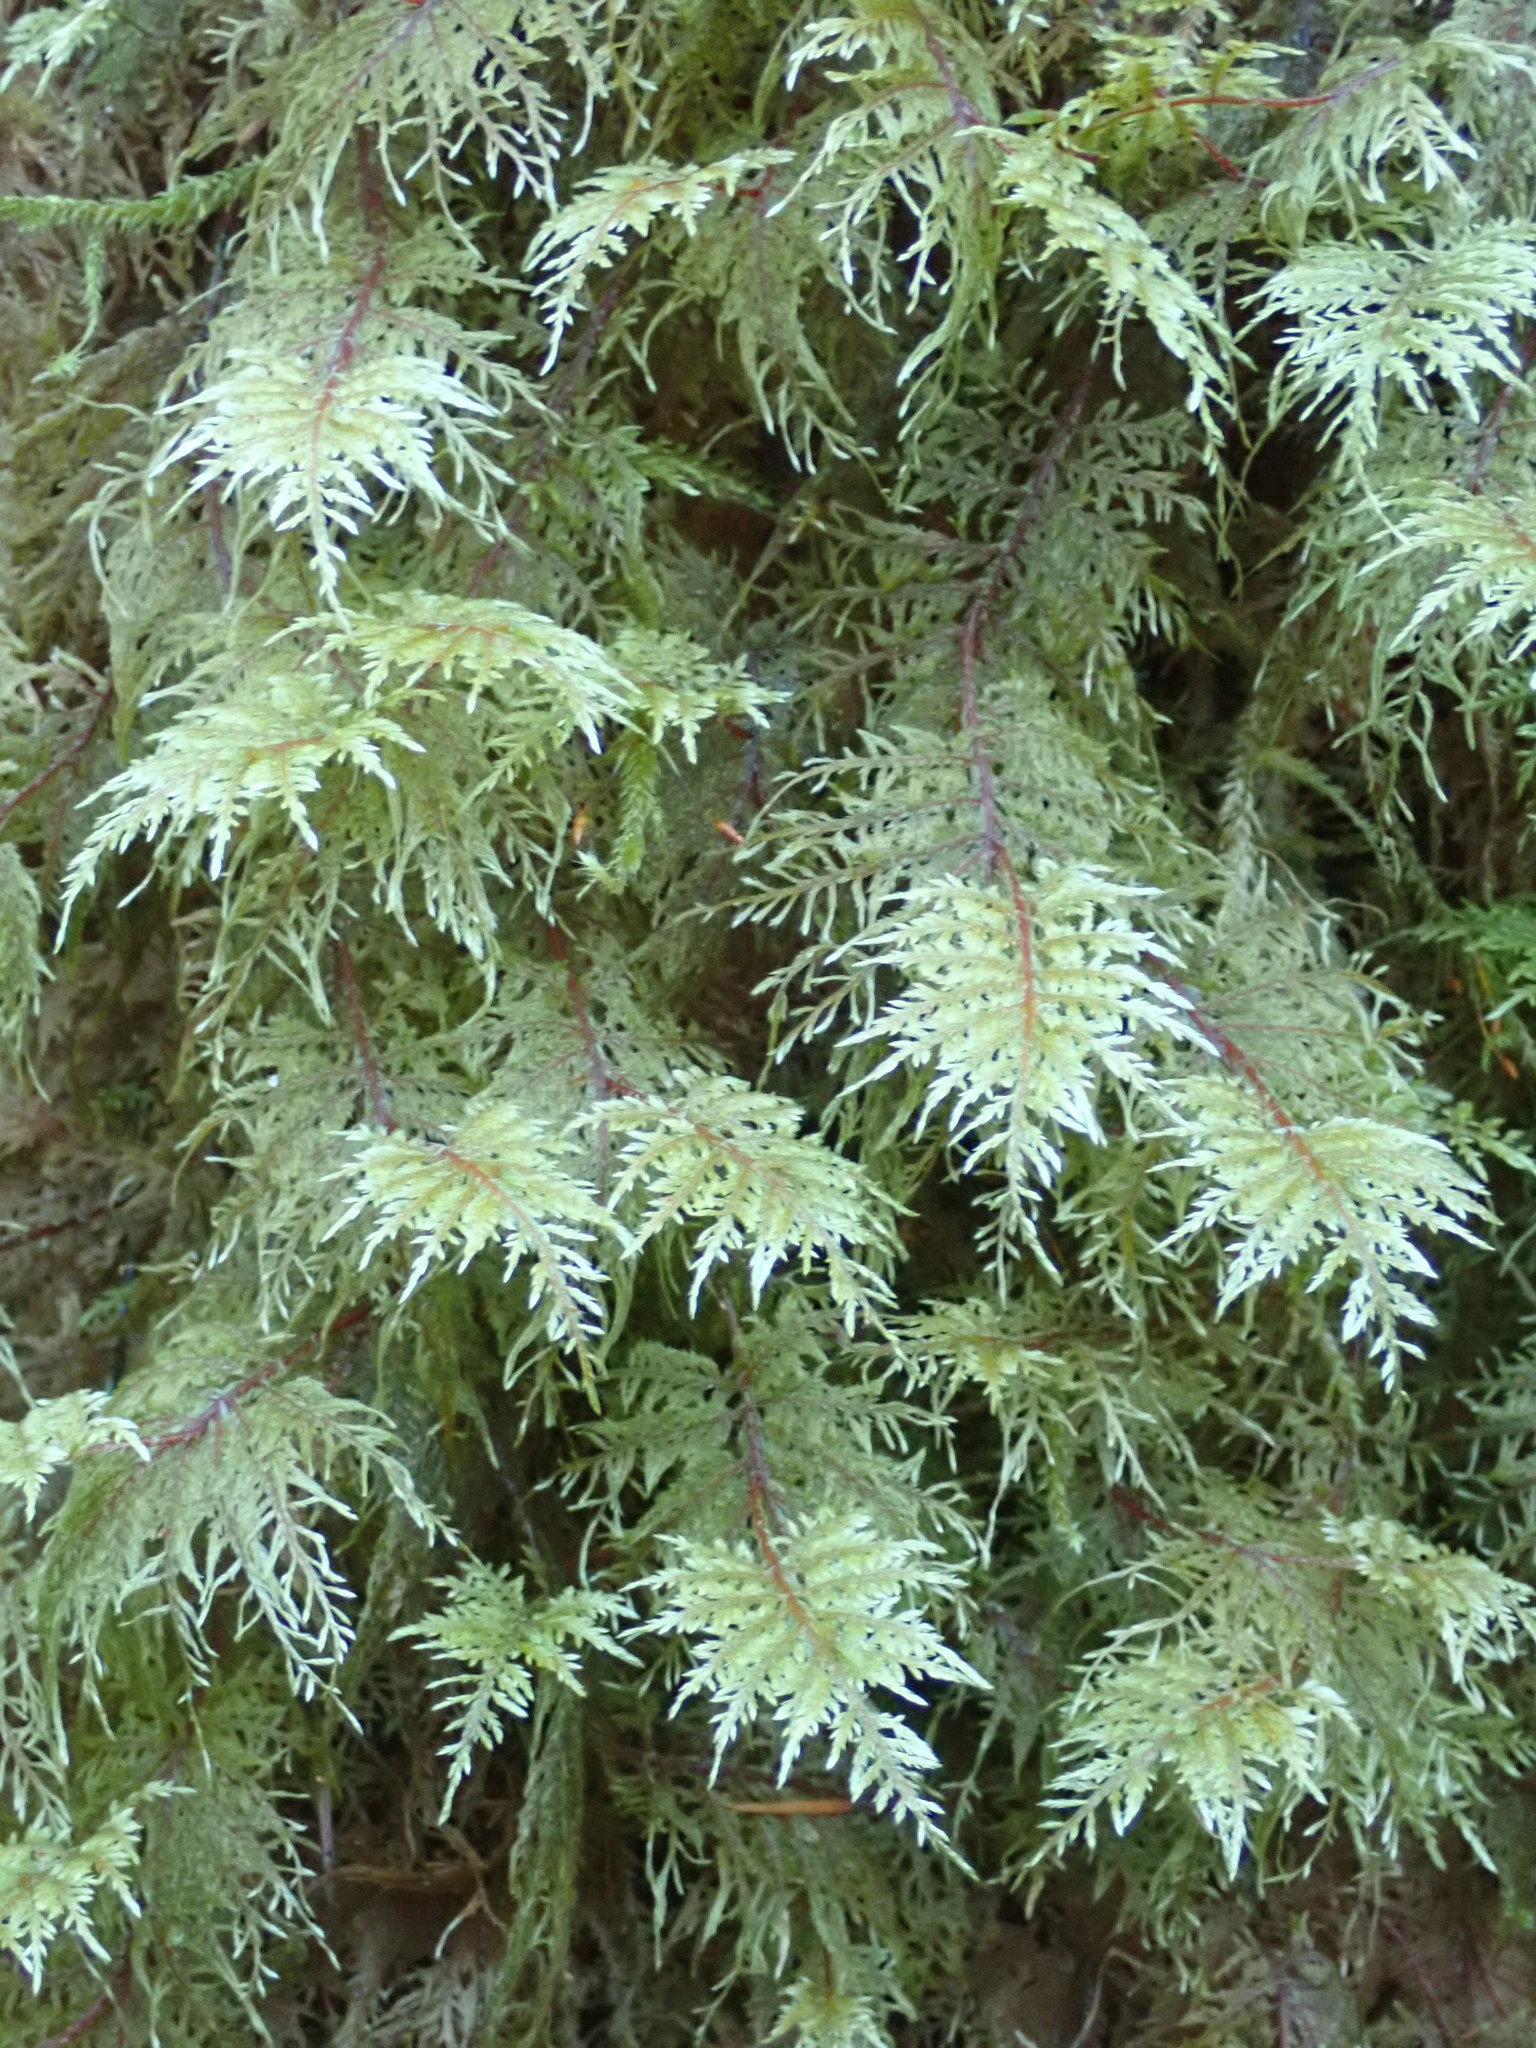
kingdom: Plantae
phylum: Bryophyta
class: Bryopsida
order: Hypnales
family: Hylocomiaceae
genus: Hylocomium
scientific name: Hylocomium splendens
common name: Stairstep moss
